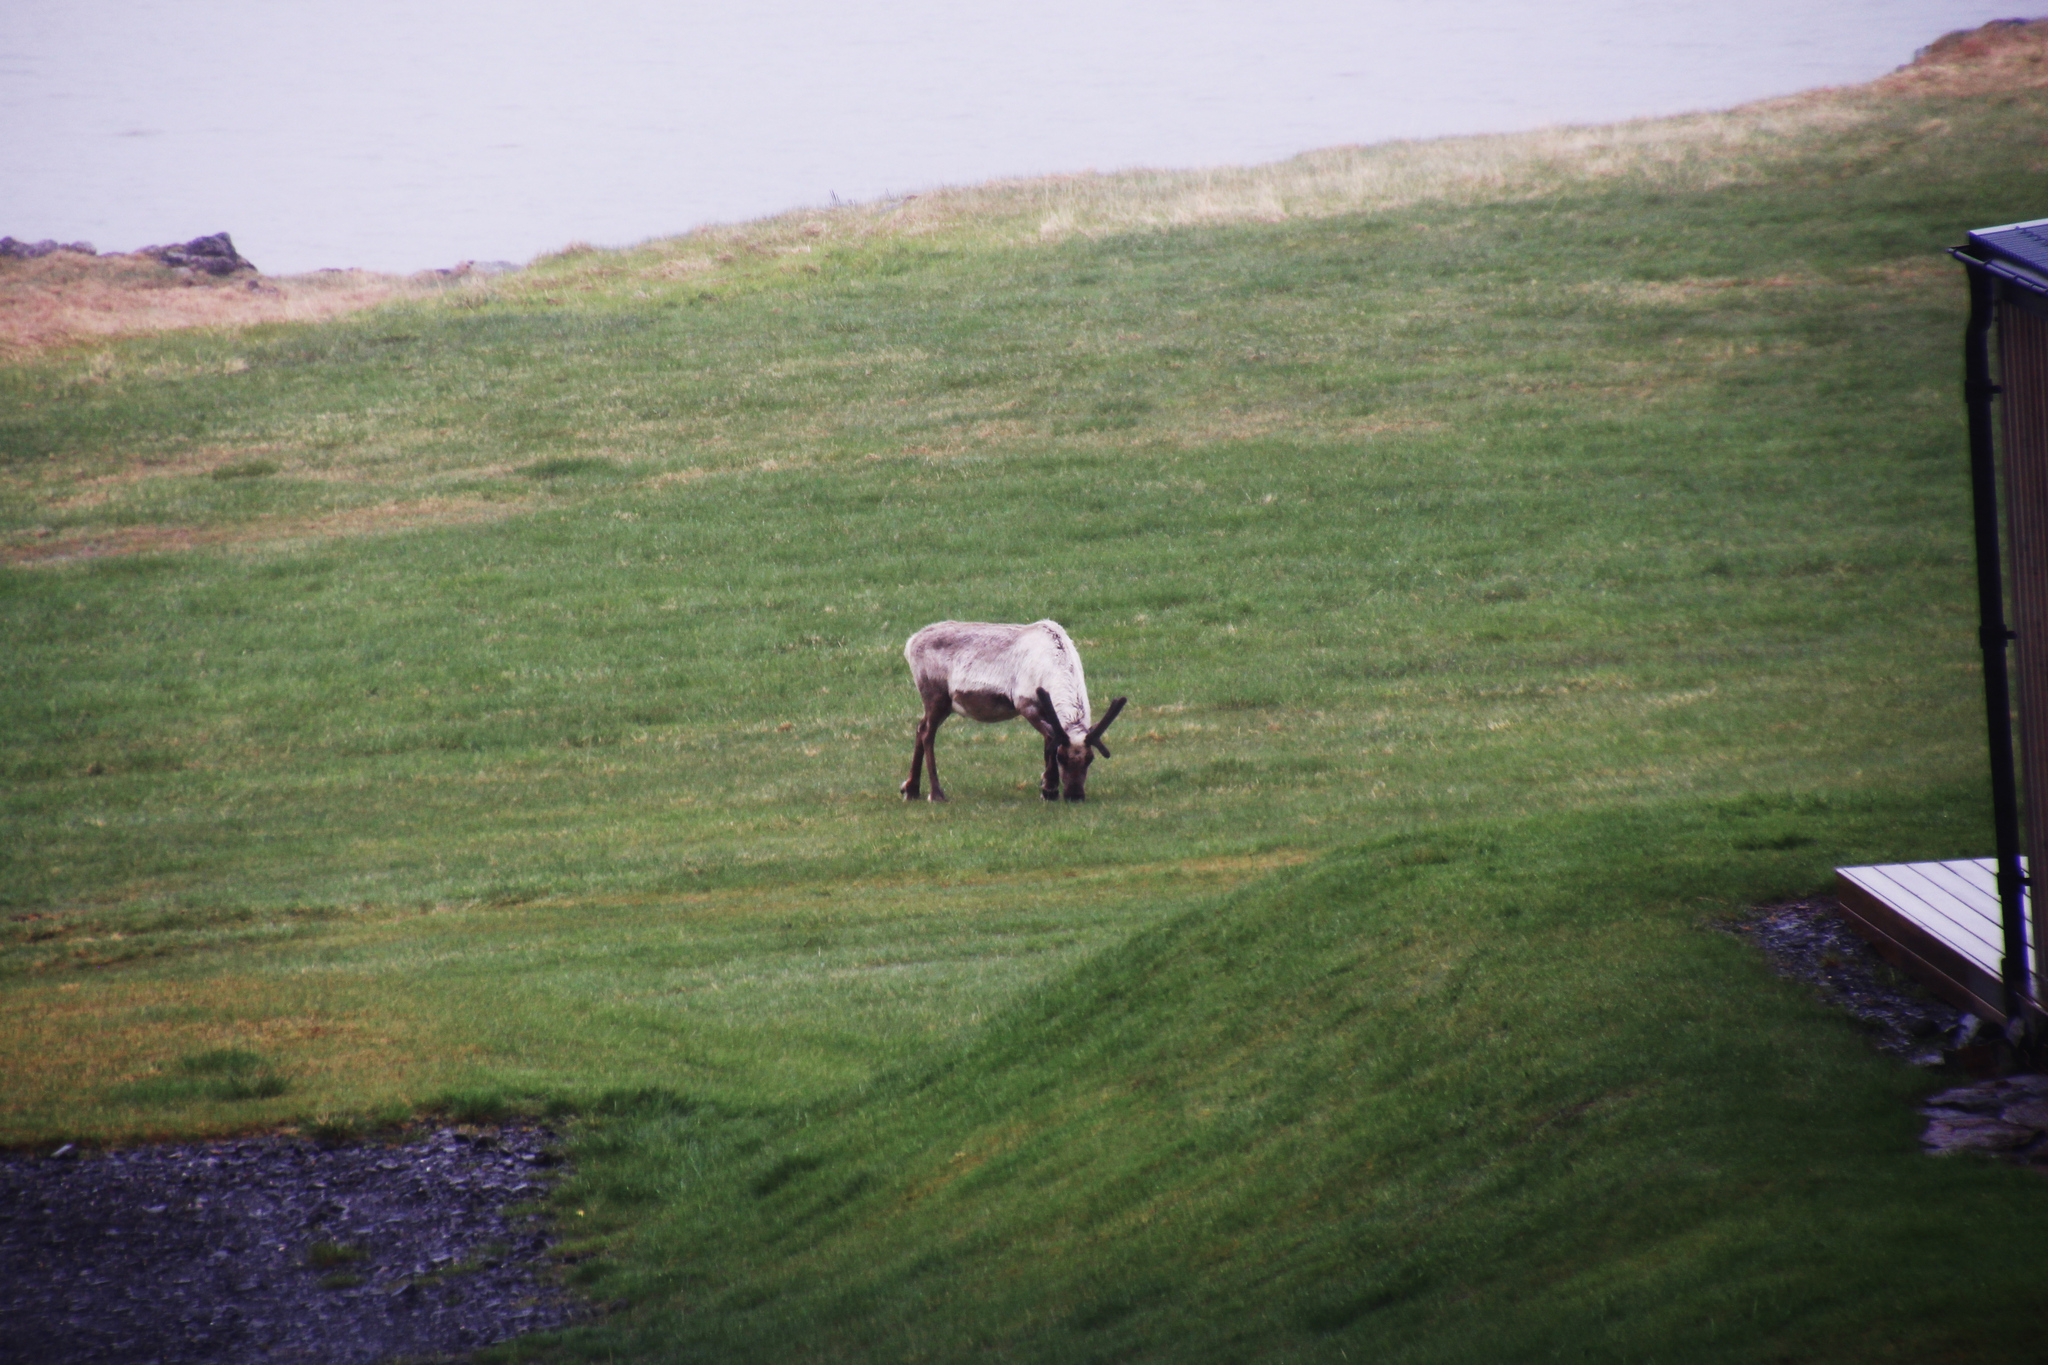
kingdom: Animalia
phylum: Chordata
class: Mammalia
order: Artiodactyla
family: Cervidae
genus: Rangifer
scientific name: Rangifer tarandus
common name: Reindeer
